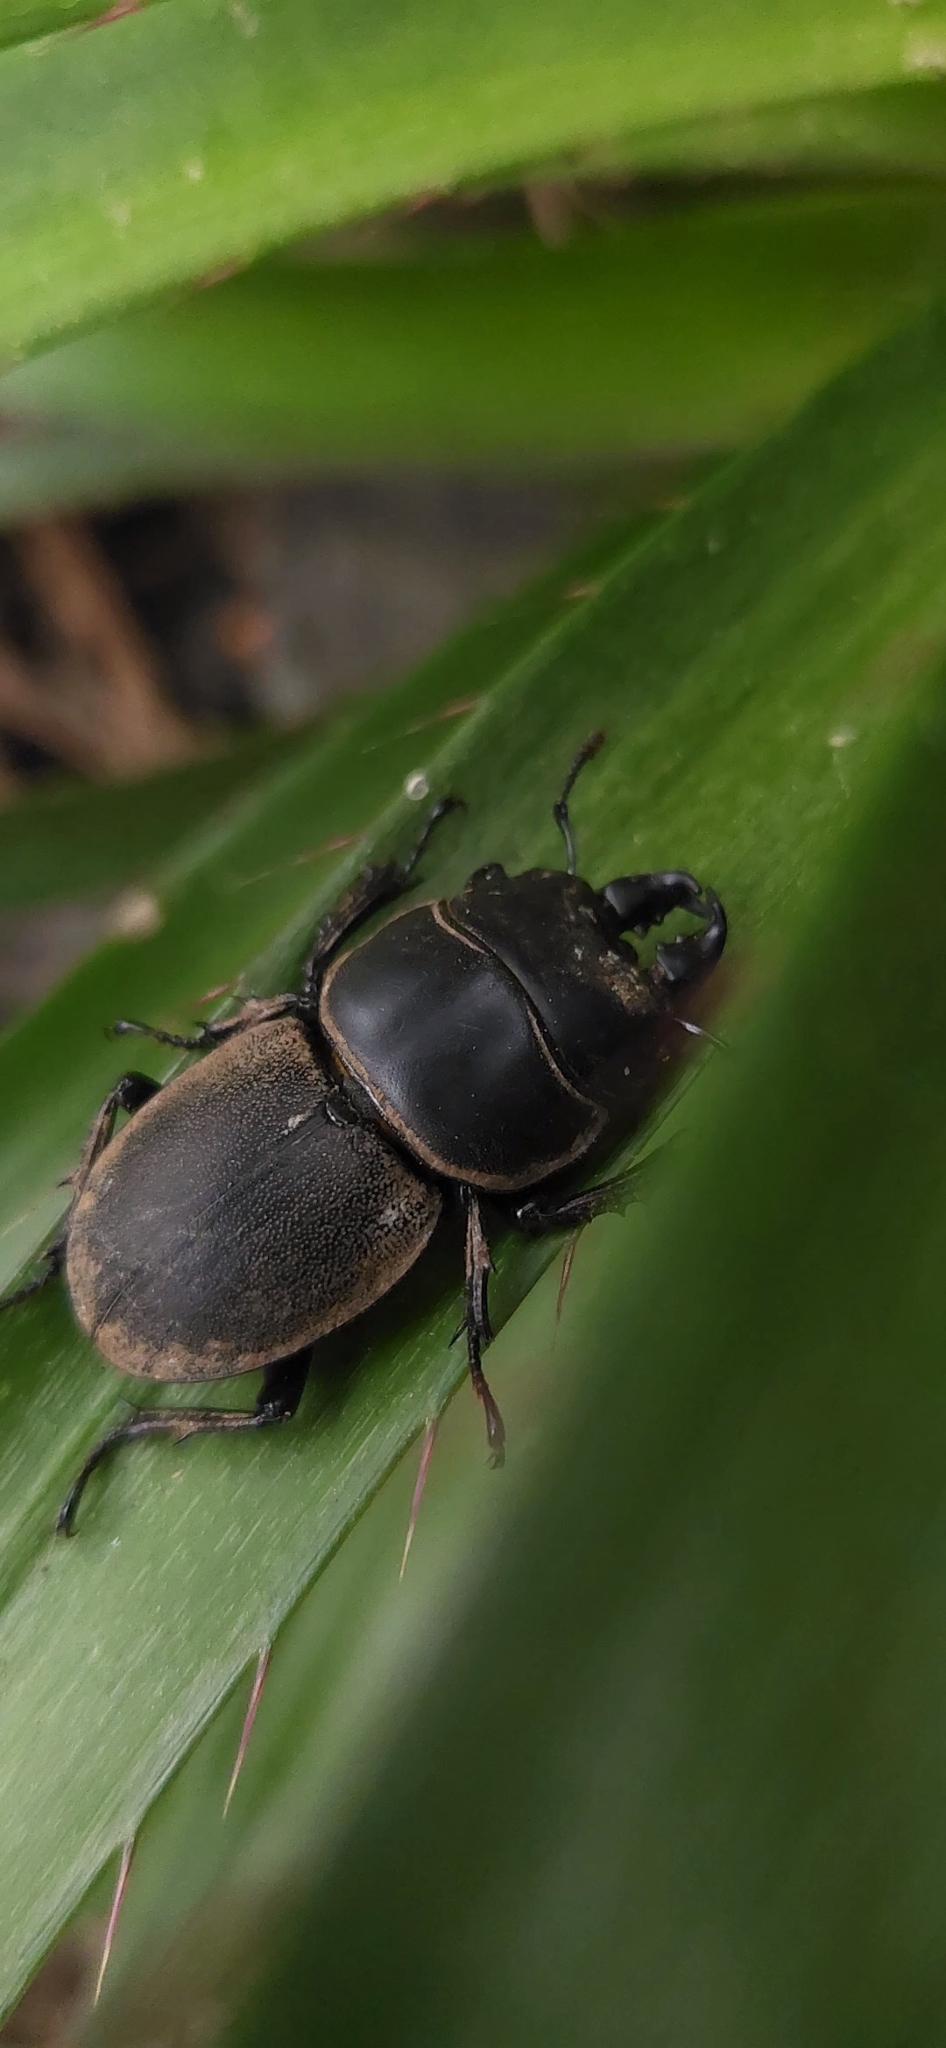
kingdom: Animalia
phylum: Arthropoda
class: Insecta
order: Coleoptera
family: Lucanidae
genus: Apterodorcus
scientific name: Apterodorcus bacchus
